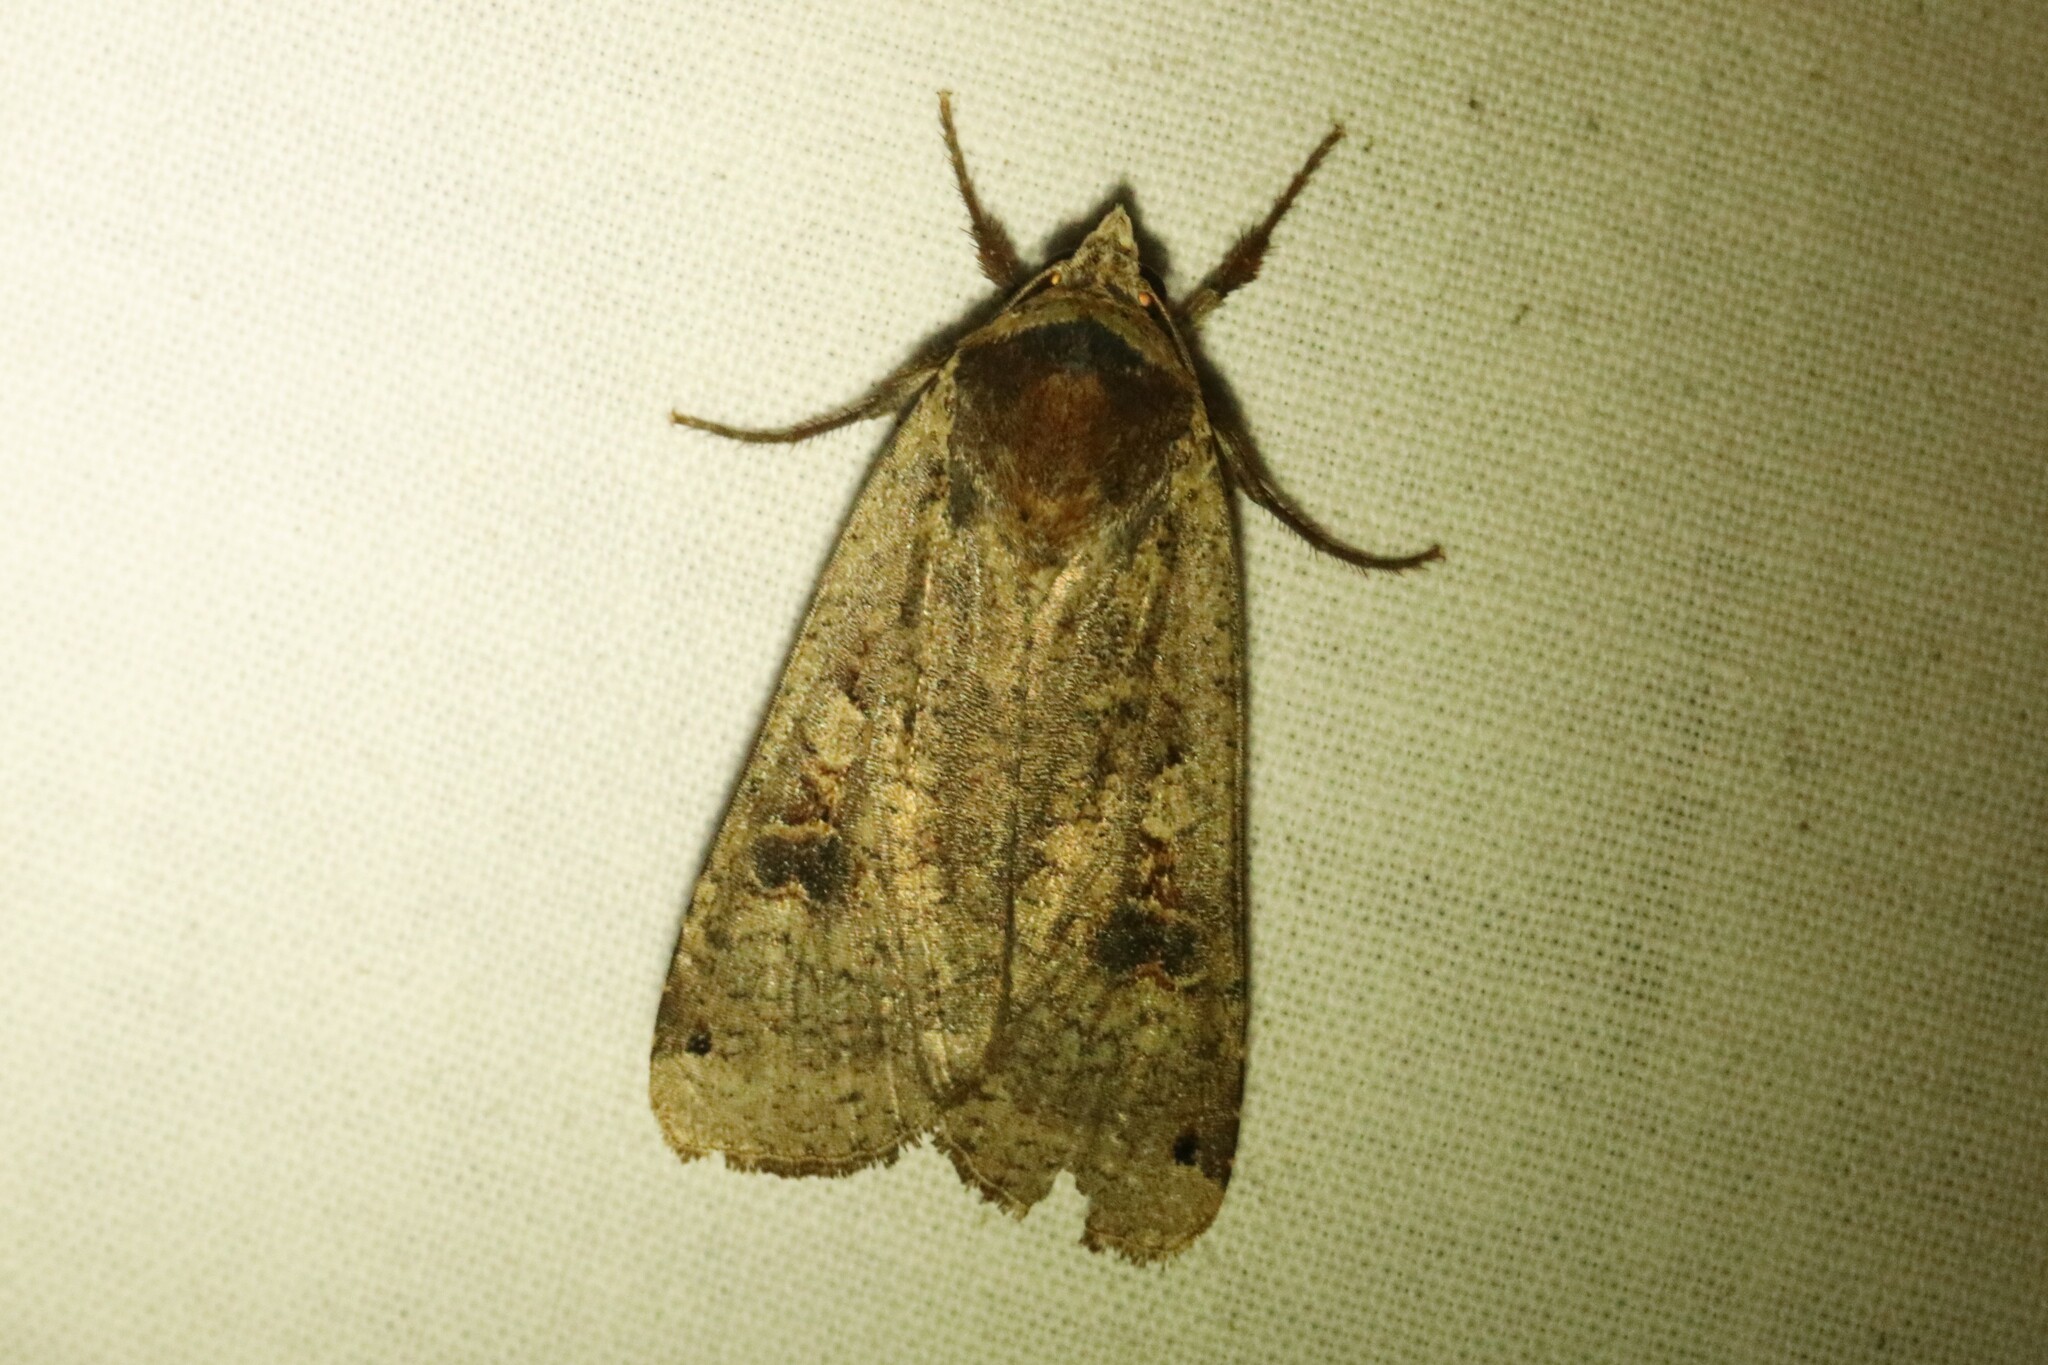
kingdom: Animalia
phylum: Arthropoda
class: Insecta
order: Lepidoptera
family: Noctuidae
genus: Noctua
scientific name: Noctua pronuba
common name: Large yellow underwing
